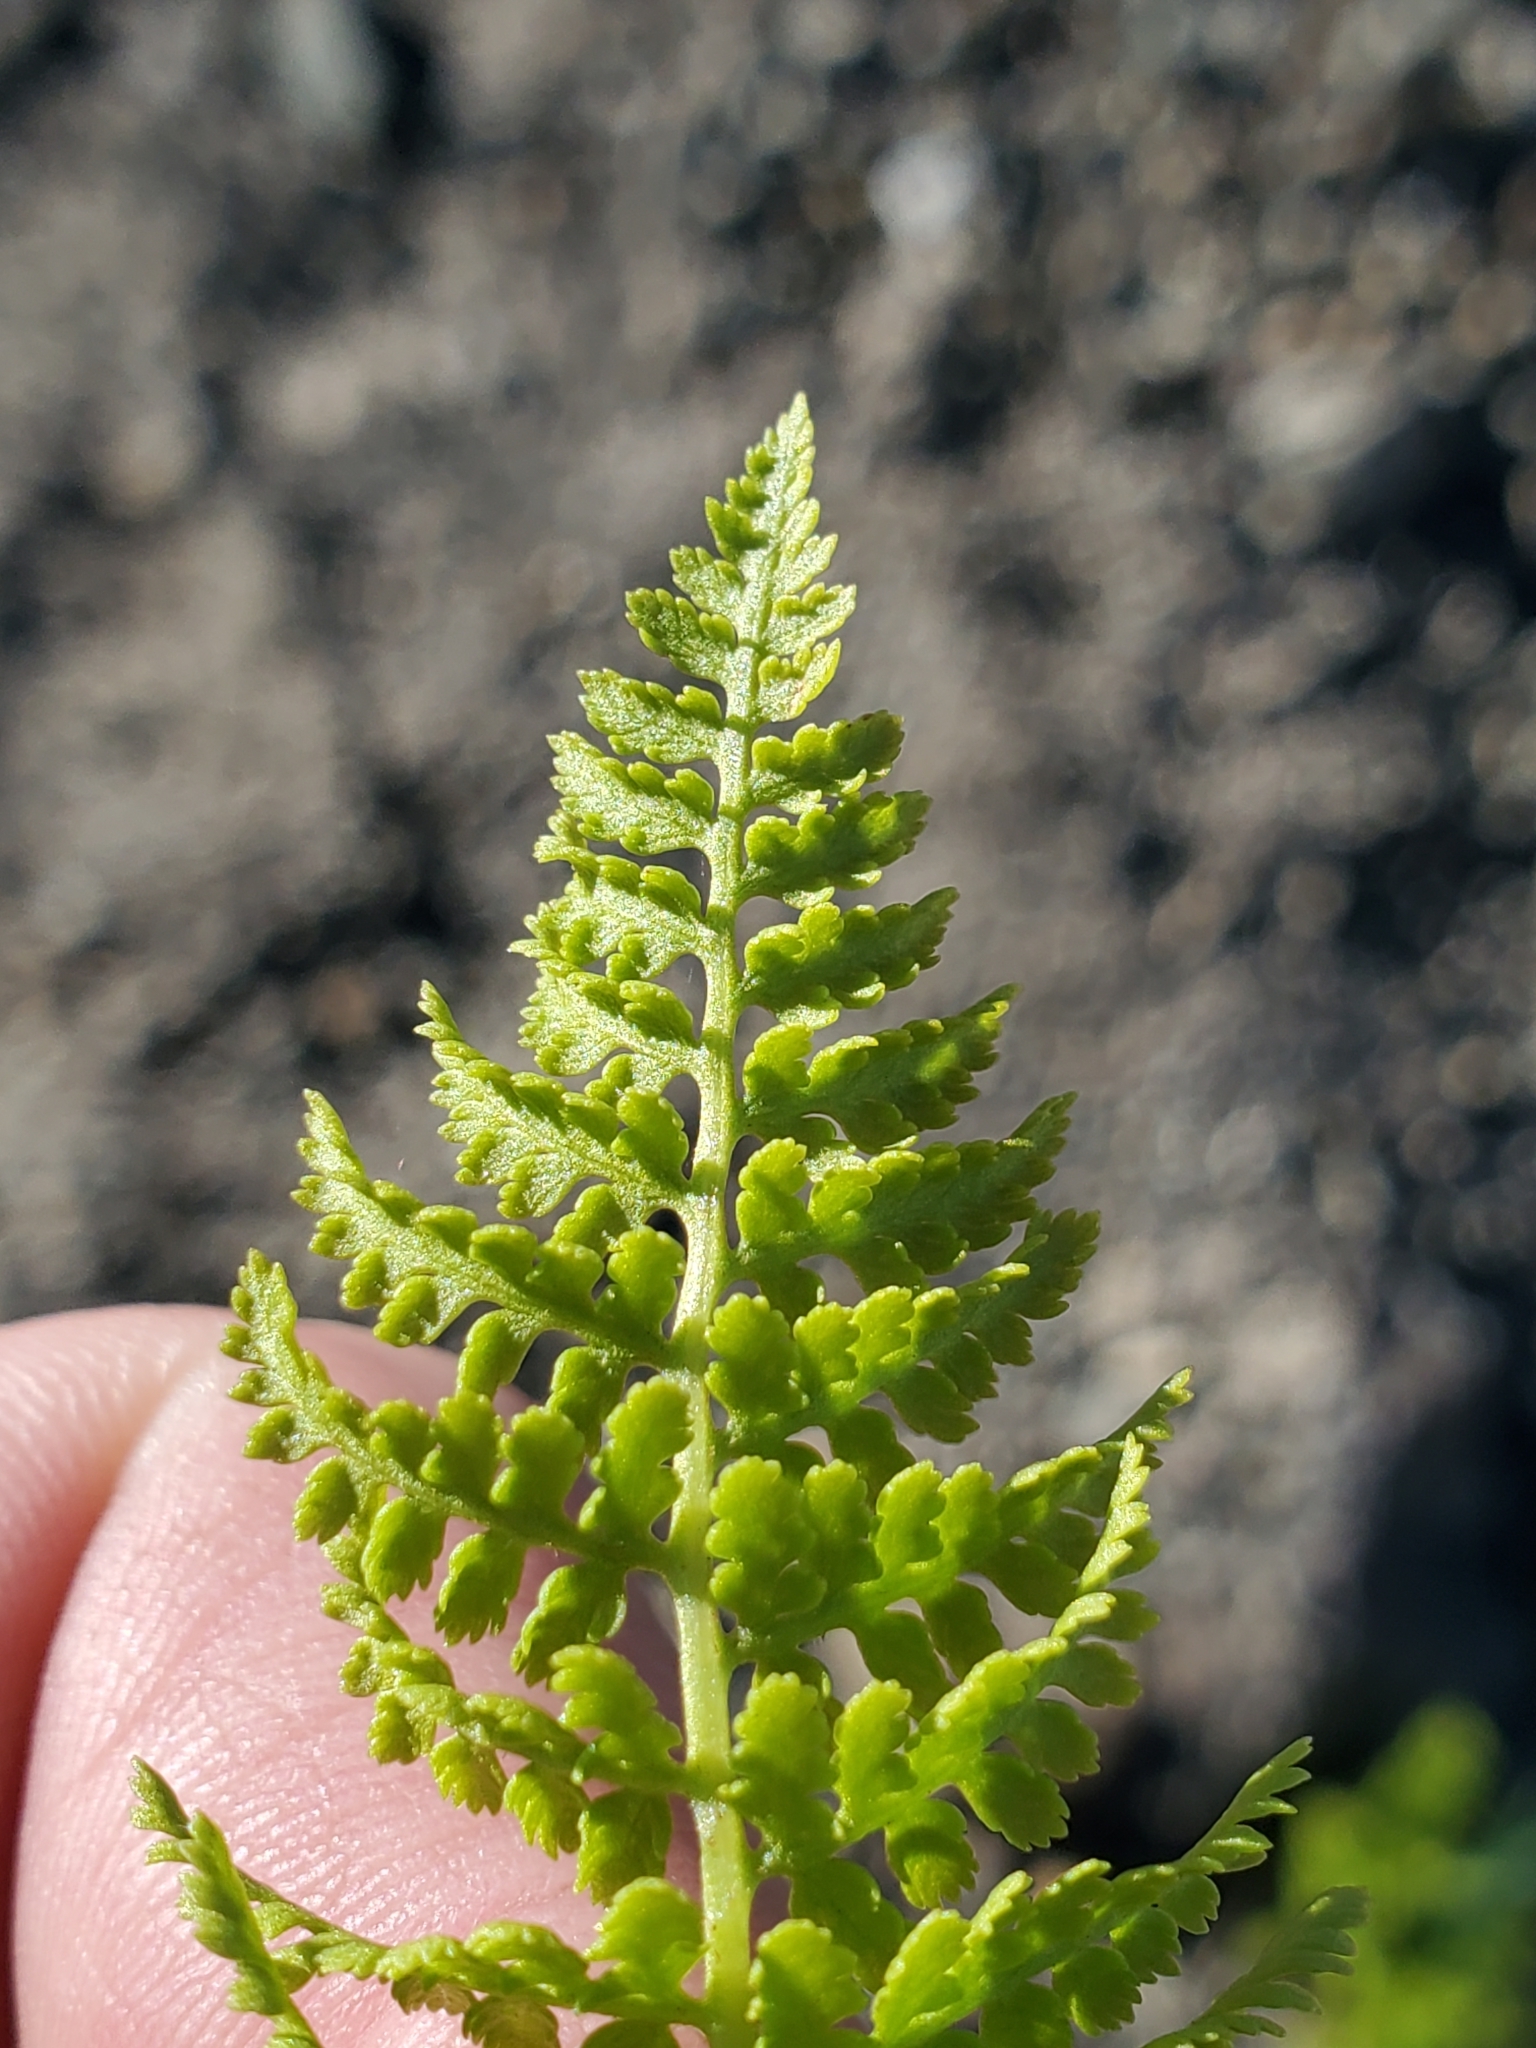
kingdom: Plantae
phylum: Tracheophyta
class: Polypodiopsida
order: Polypodiales
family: Athyriaceae
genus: Athyrium
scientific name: Athyrium americanum
